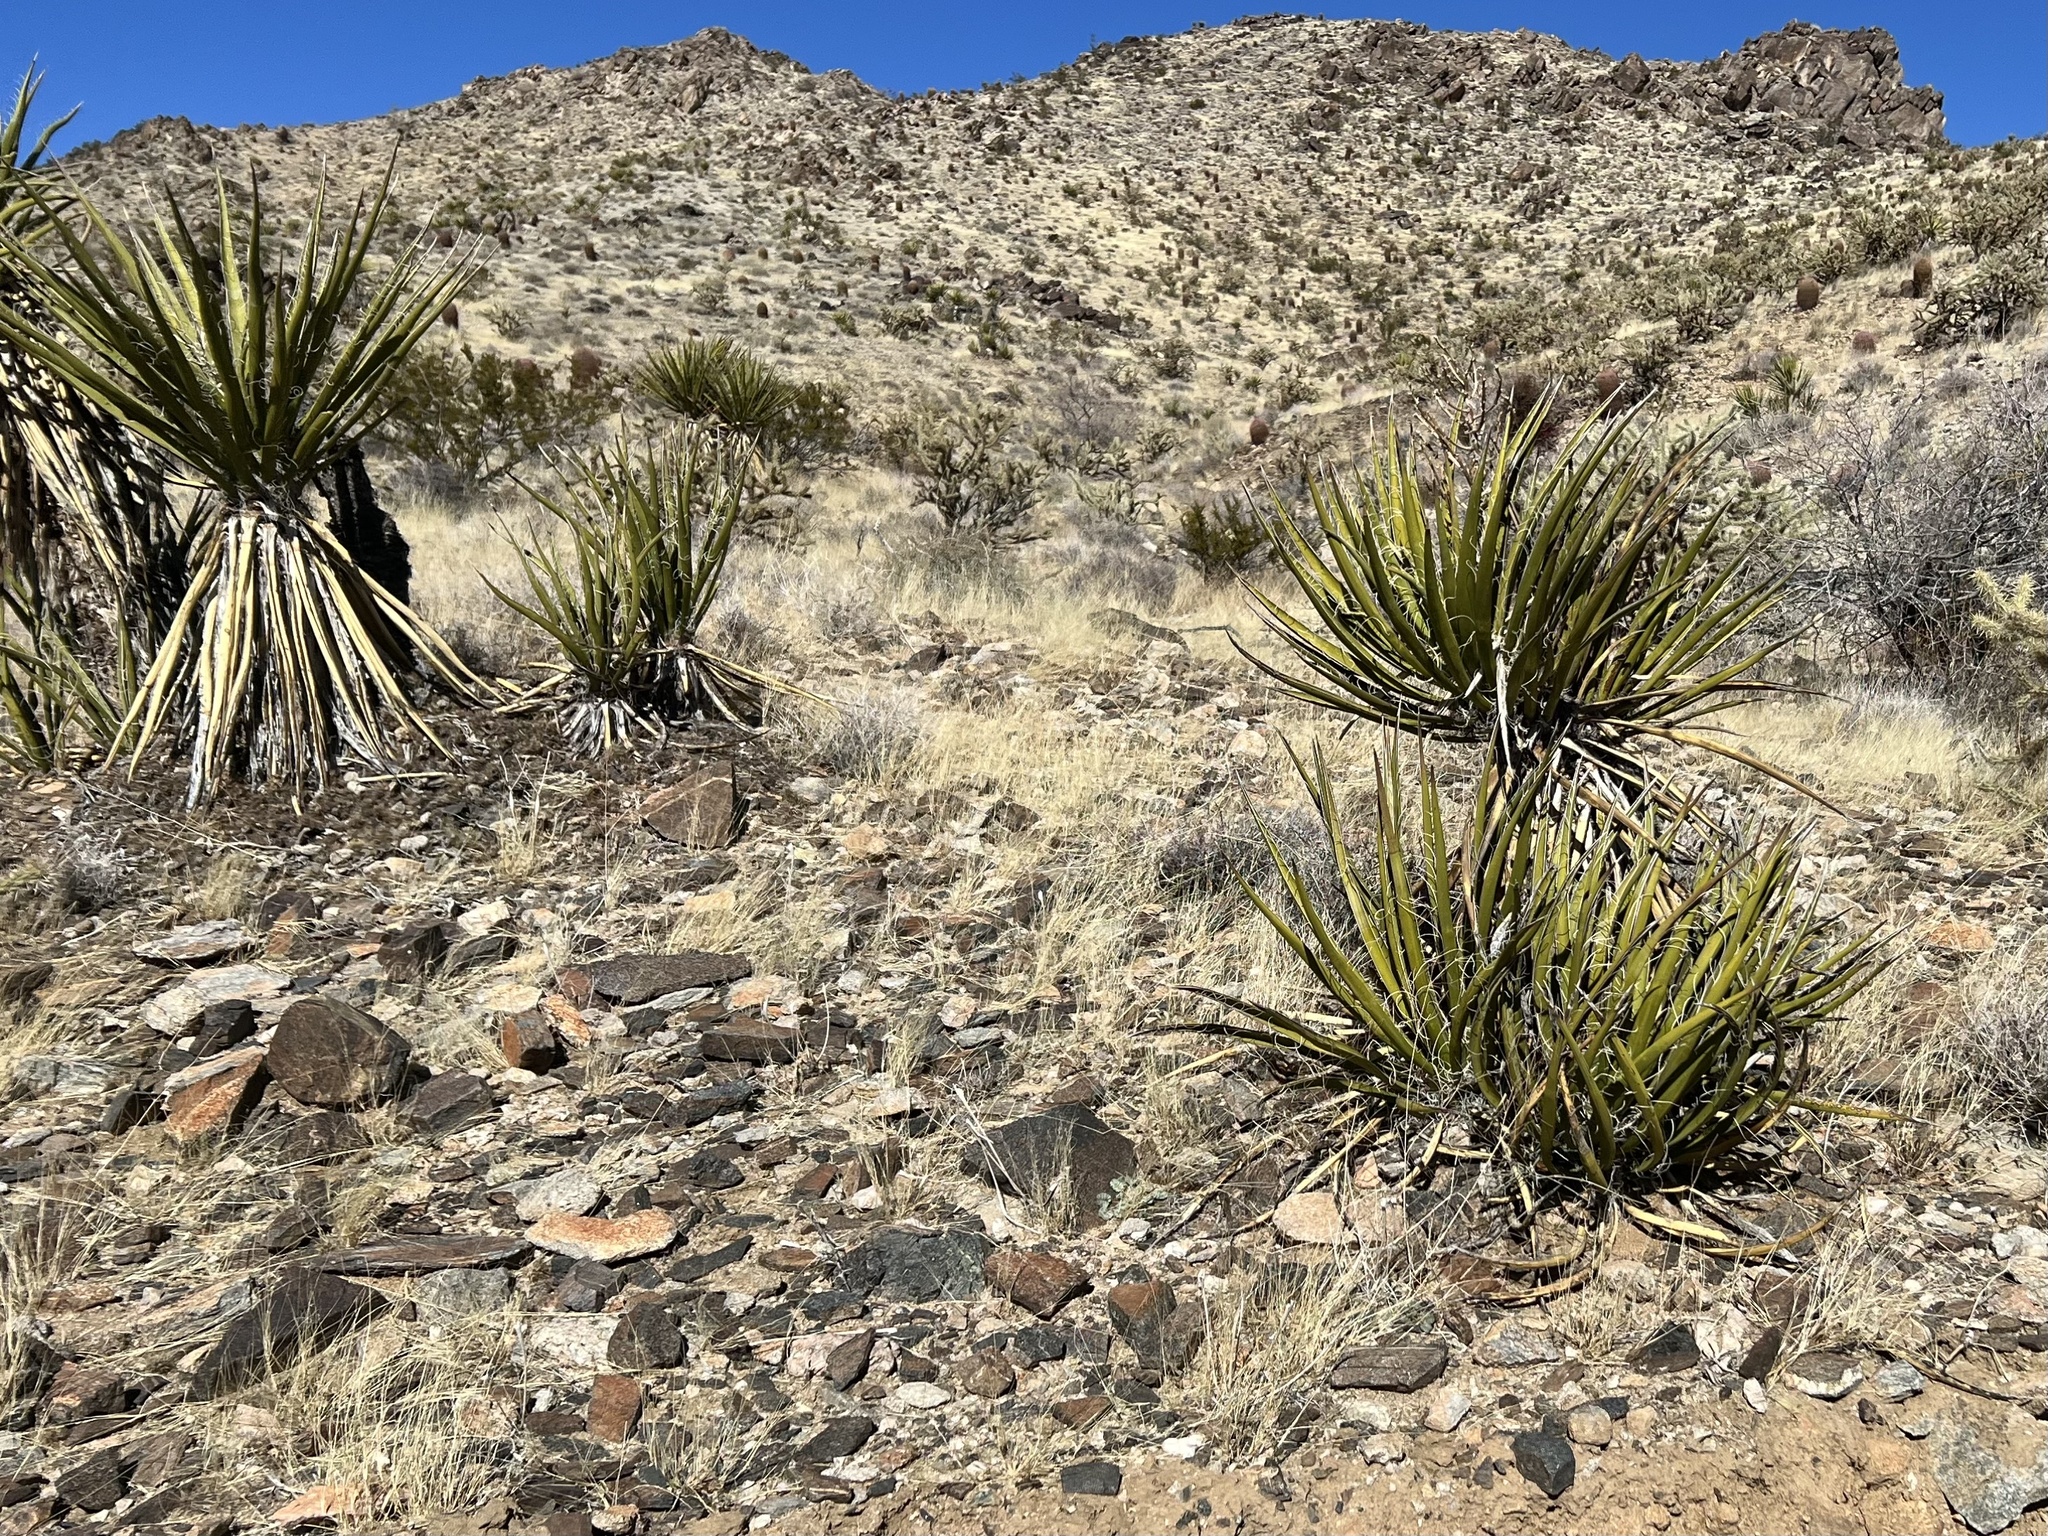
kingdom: Plantae
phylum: Tracheophyta
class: Liliopsida
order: Asparagales
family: Asparagaceae
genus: Yucca
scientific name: Yucca schidigera
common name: Mojave yucca
